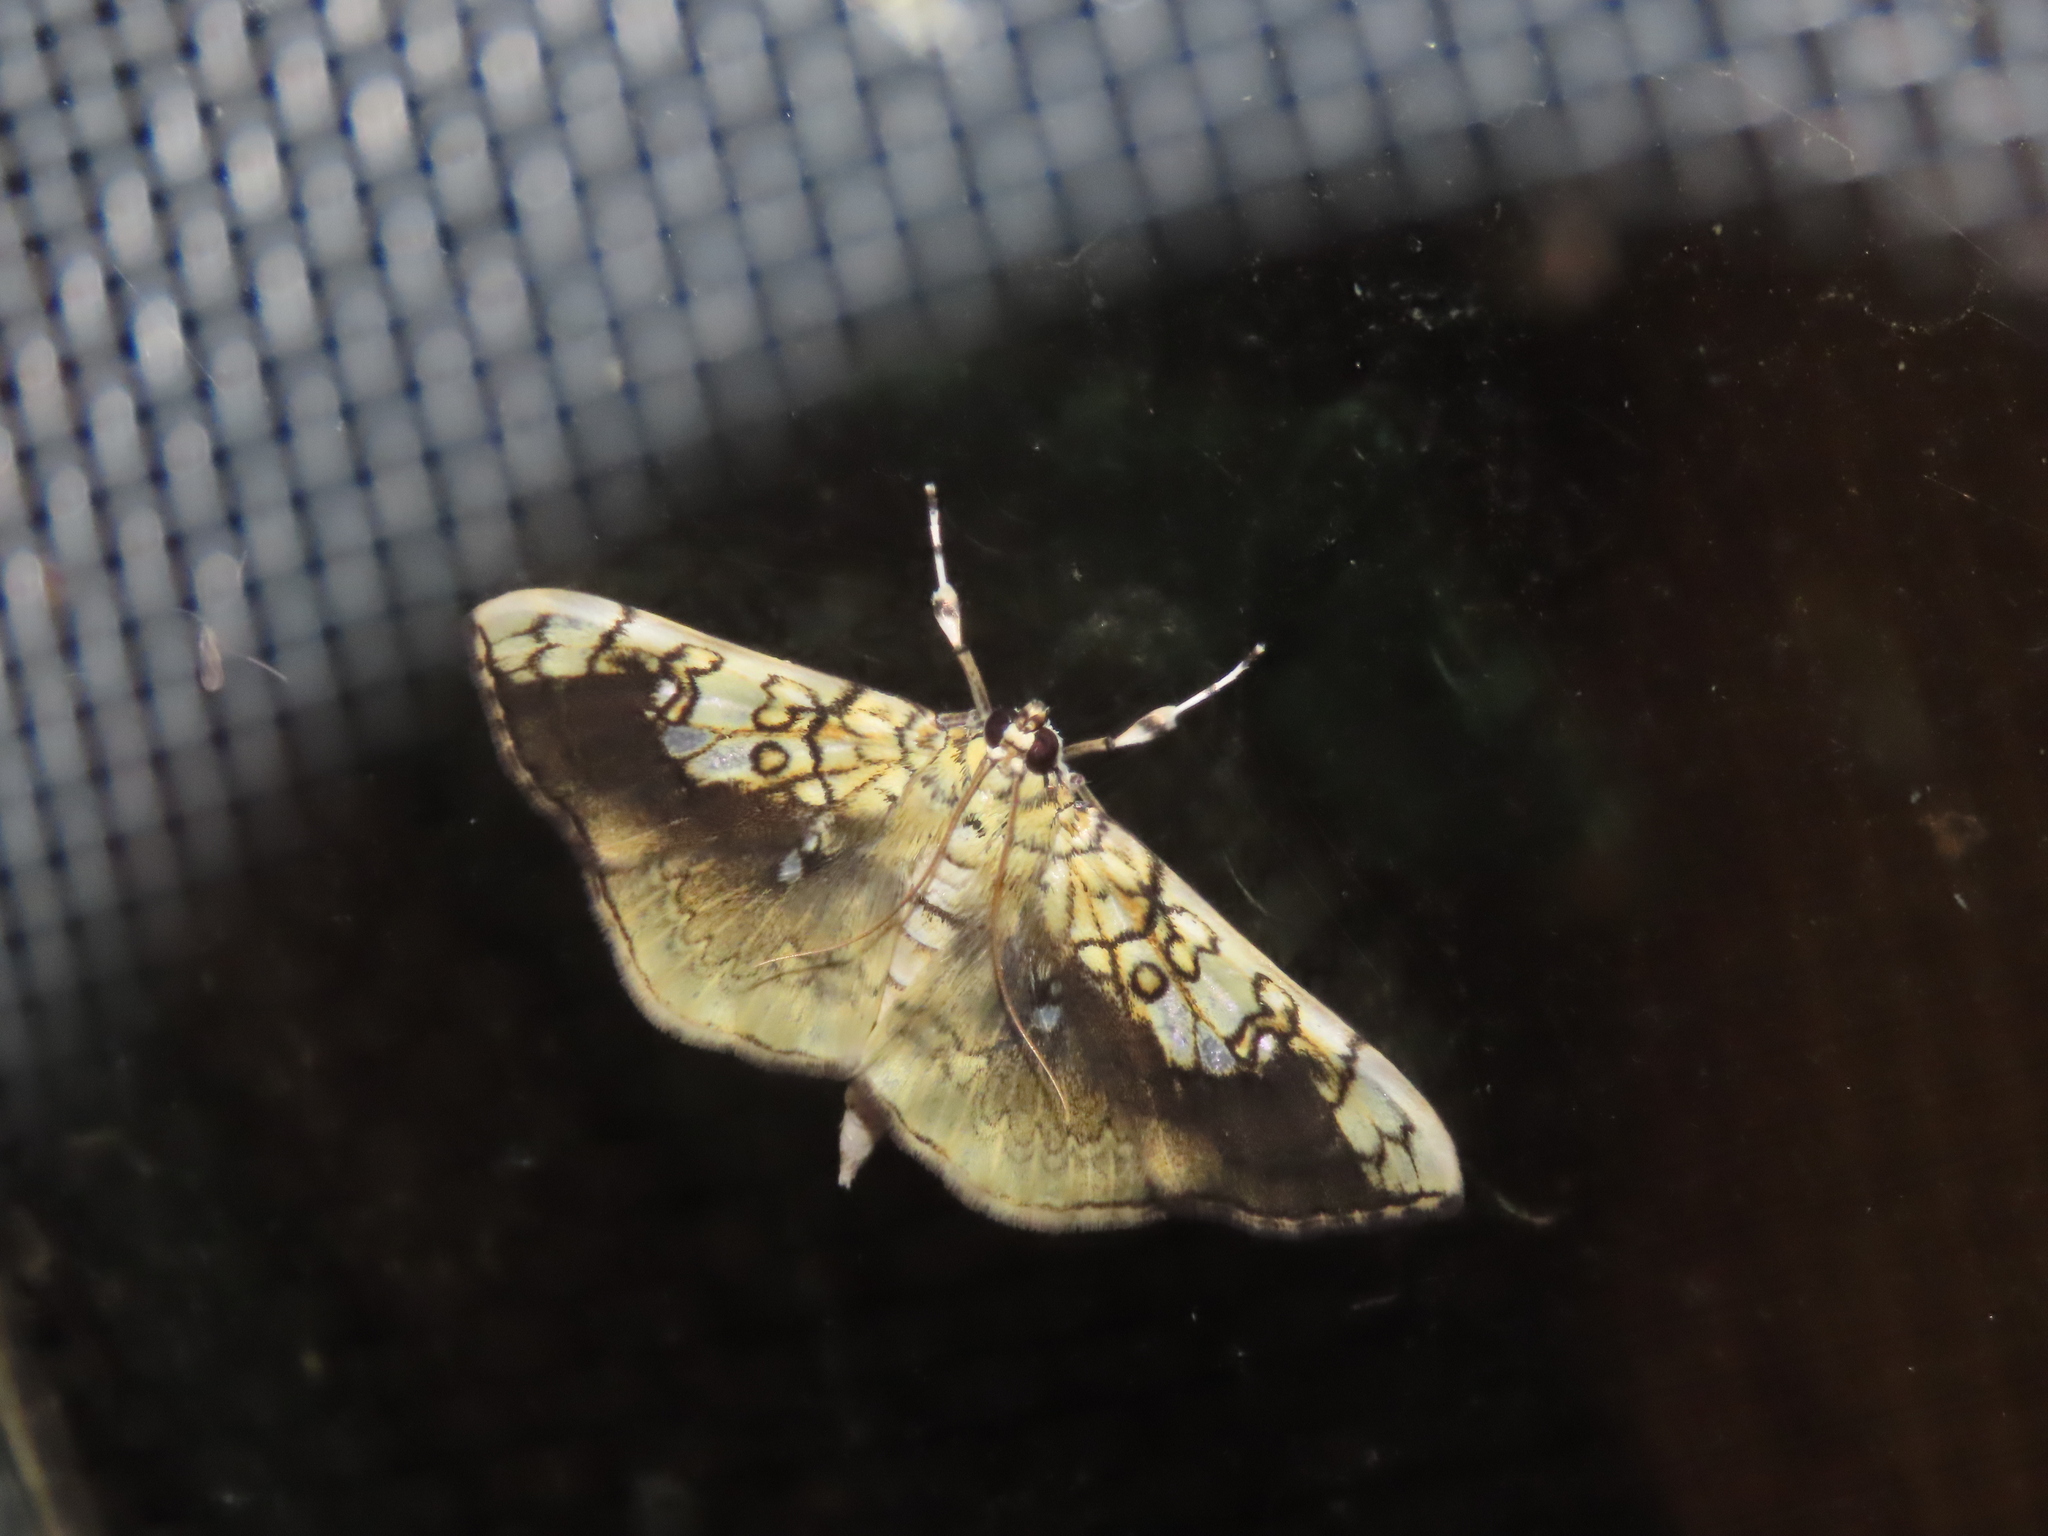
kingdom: Animalia
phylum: Arthropoda
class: Insecta
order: Lepidoptera
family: Crambidae
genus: Pantographa
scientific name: Pantographa limata
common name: Basswood leafroller moth
